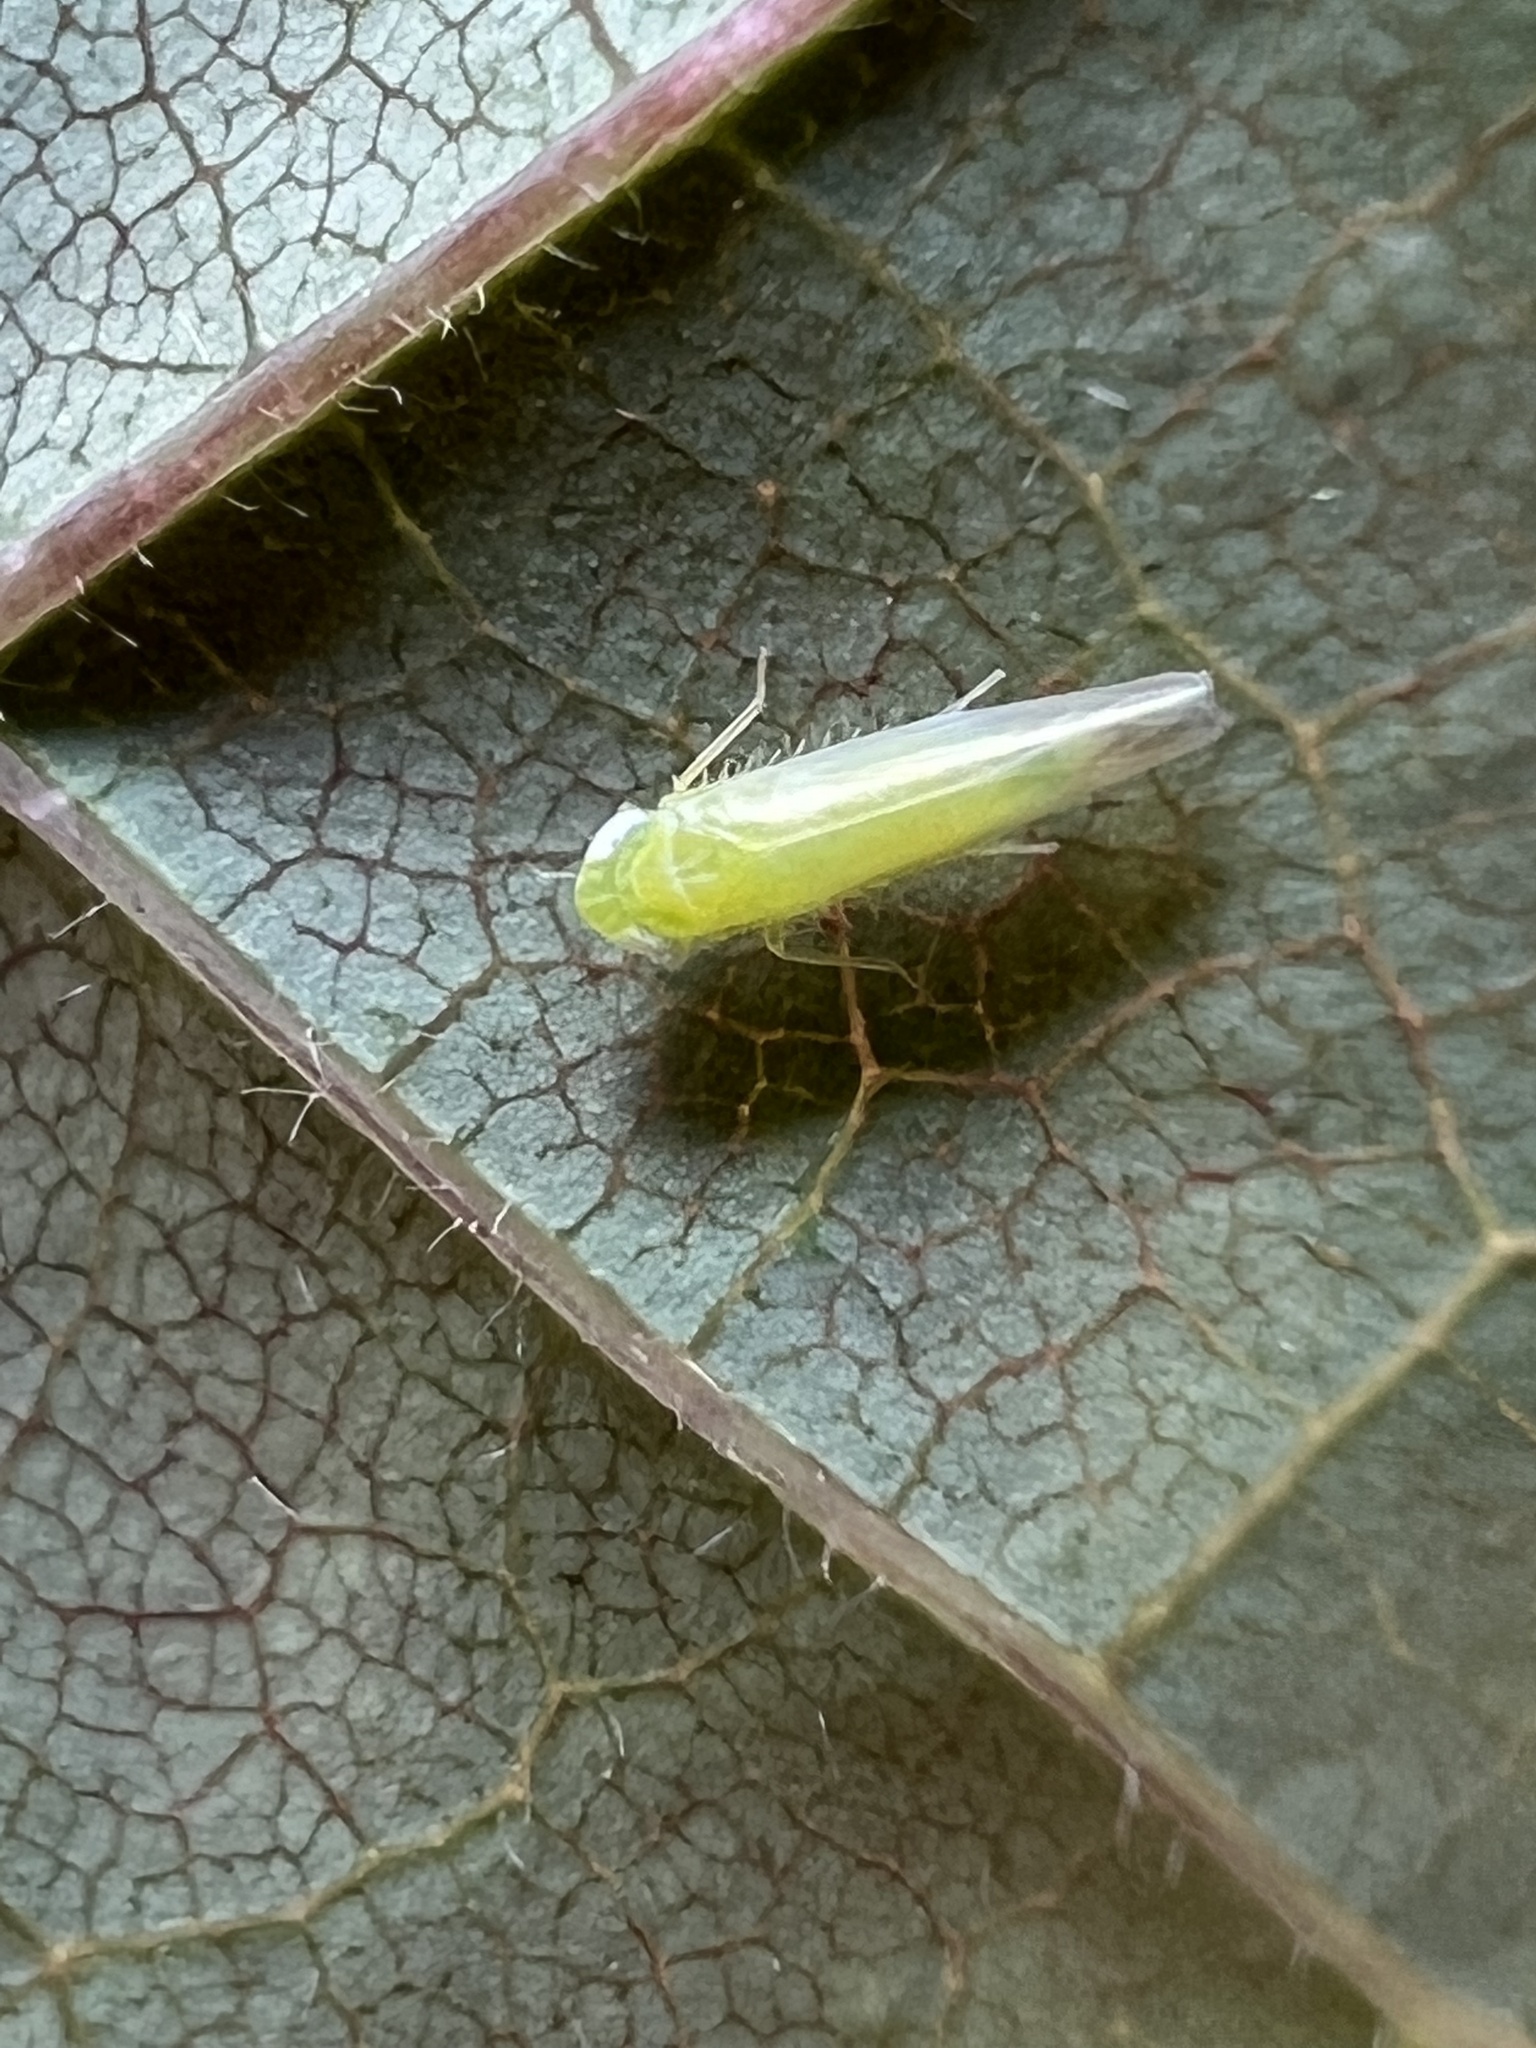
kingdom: Animalia
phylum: Arthropoda
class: Insecta
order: Hemiptera
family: Cicadellidae
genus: Empoasca
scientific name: Empoasca fabae
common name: Potato leafhopper
